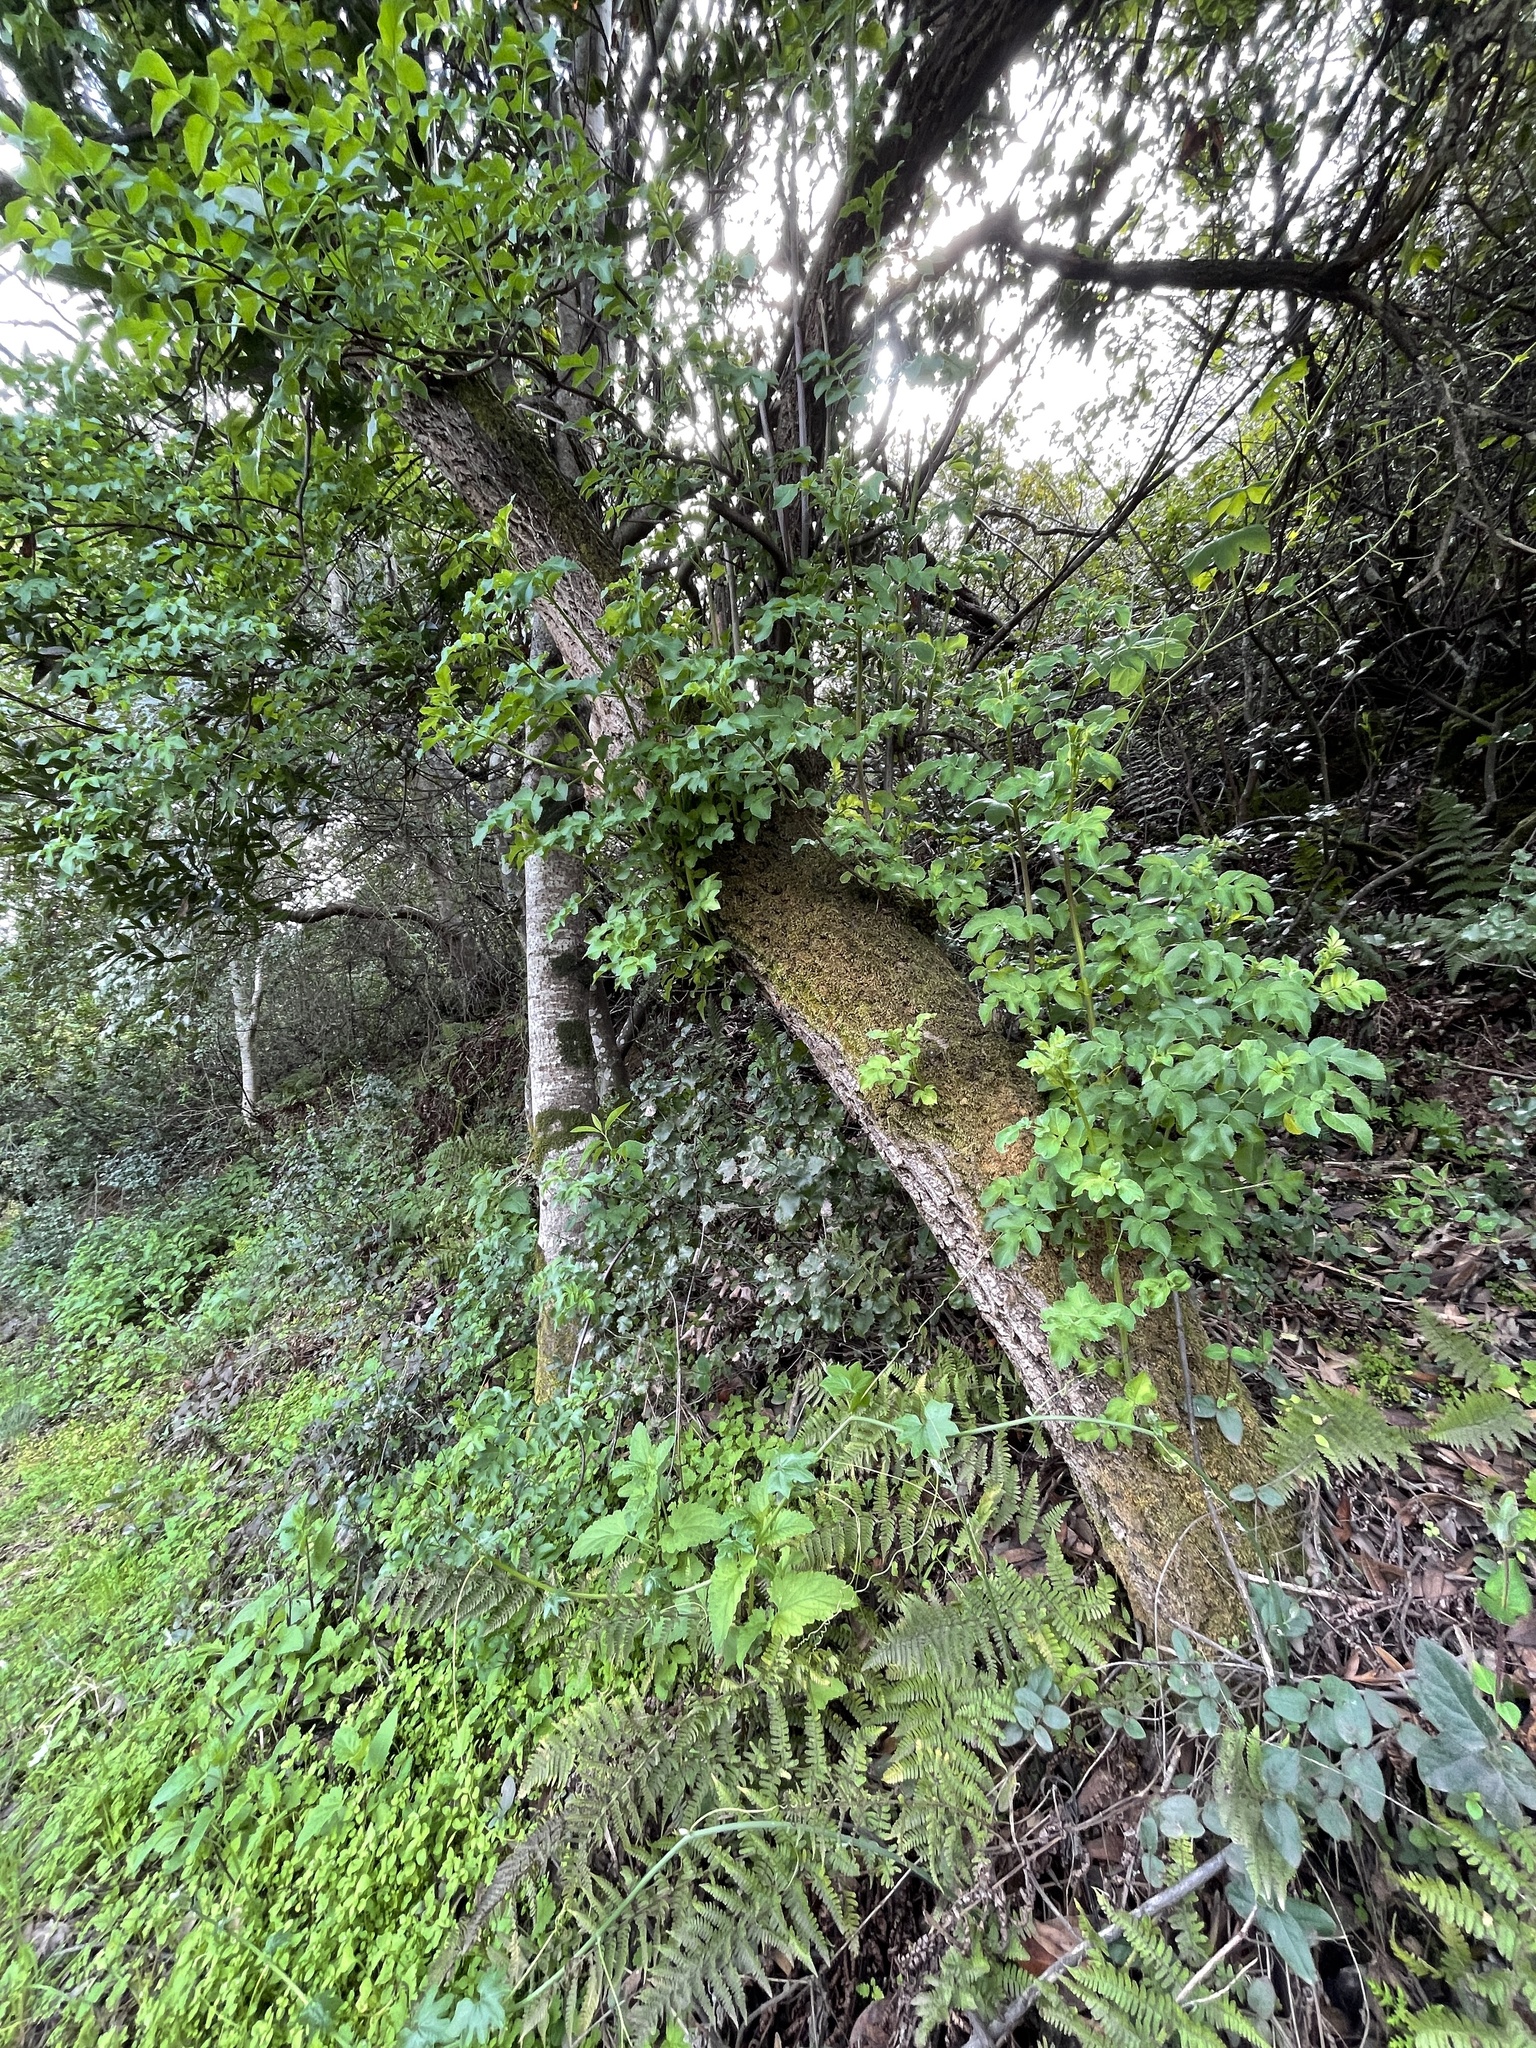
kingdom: Plantae
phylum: Tracheophyta
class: Magnoliopsida
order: Dipsacales
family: Viburnaceae
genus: Sambucus
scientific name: Sambucus cerulea
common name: Blue elder
